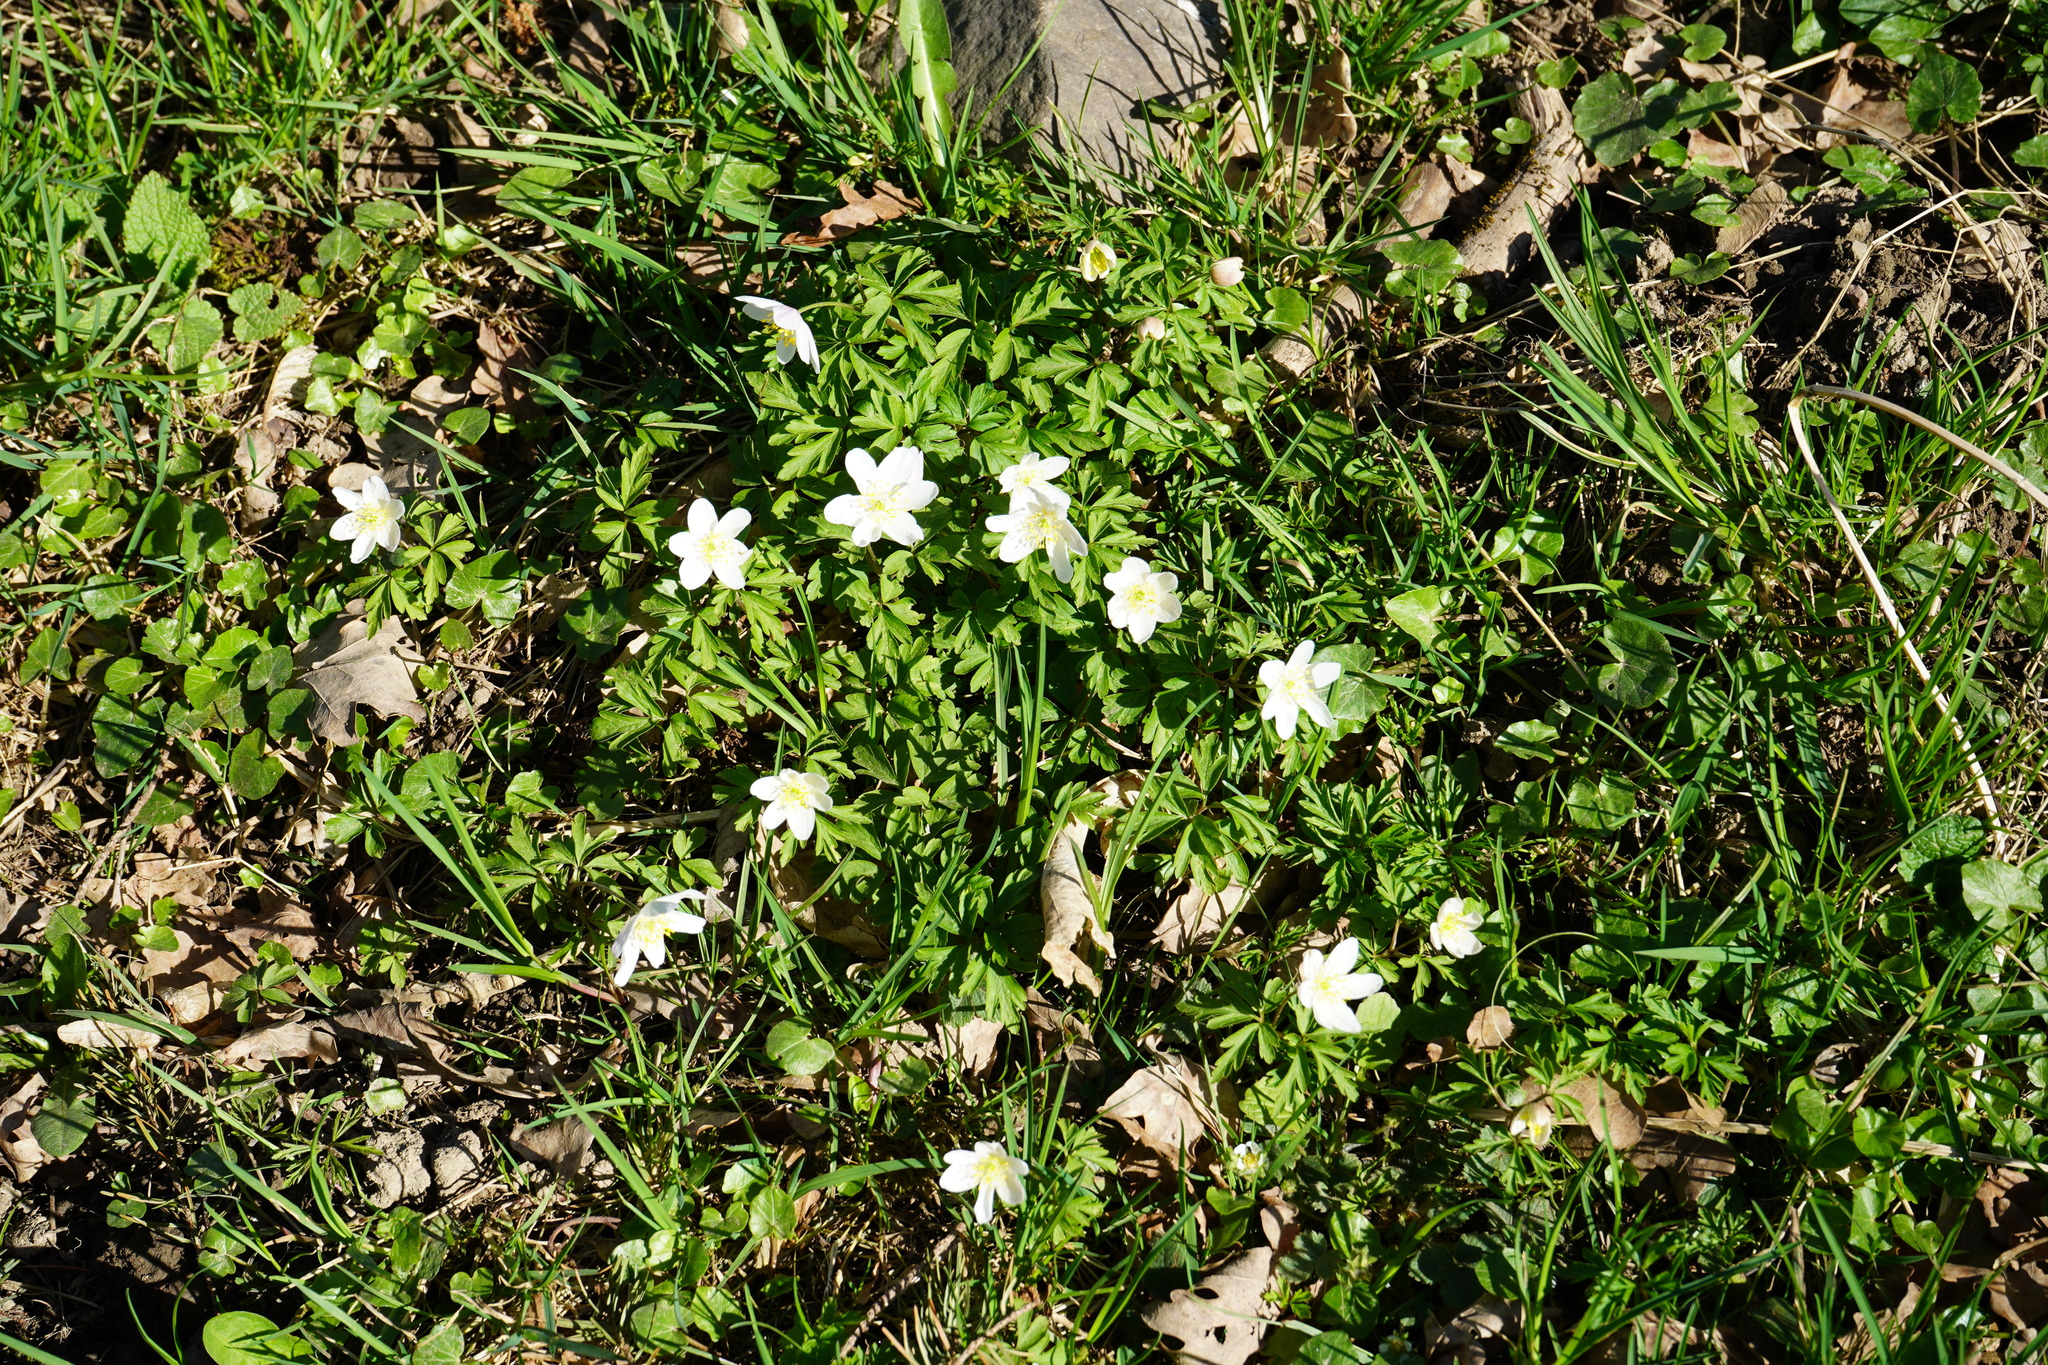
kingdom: Plantae
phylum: Tracheophyta
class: Magnoliopsida
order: Ranunculales
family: Ranunculaceae
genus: Anemone
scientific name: Anemone nemorosa
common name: Wood anemone
